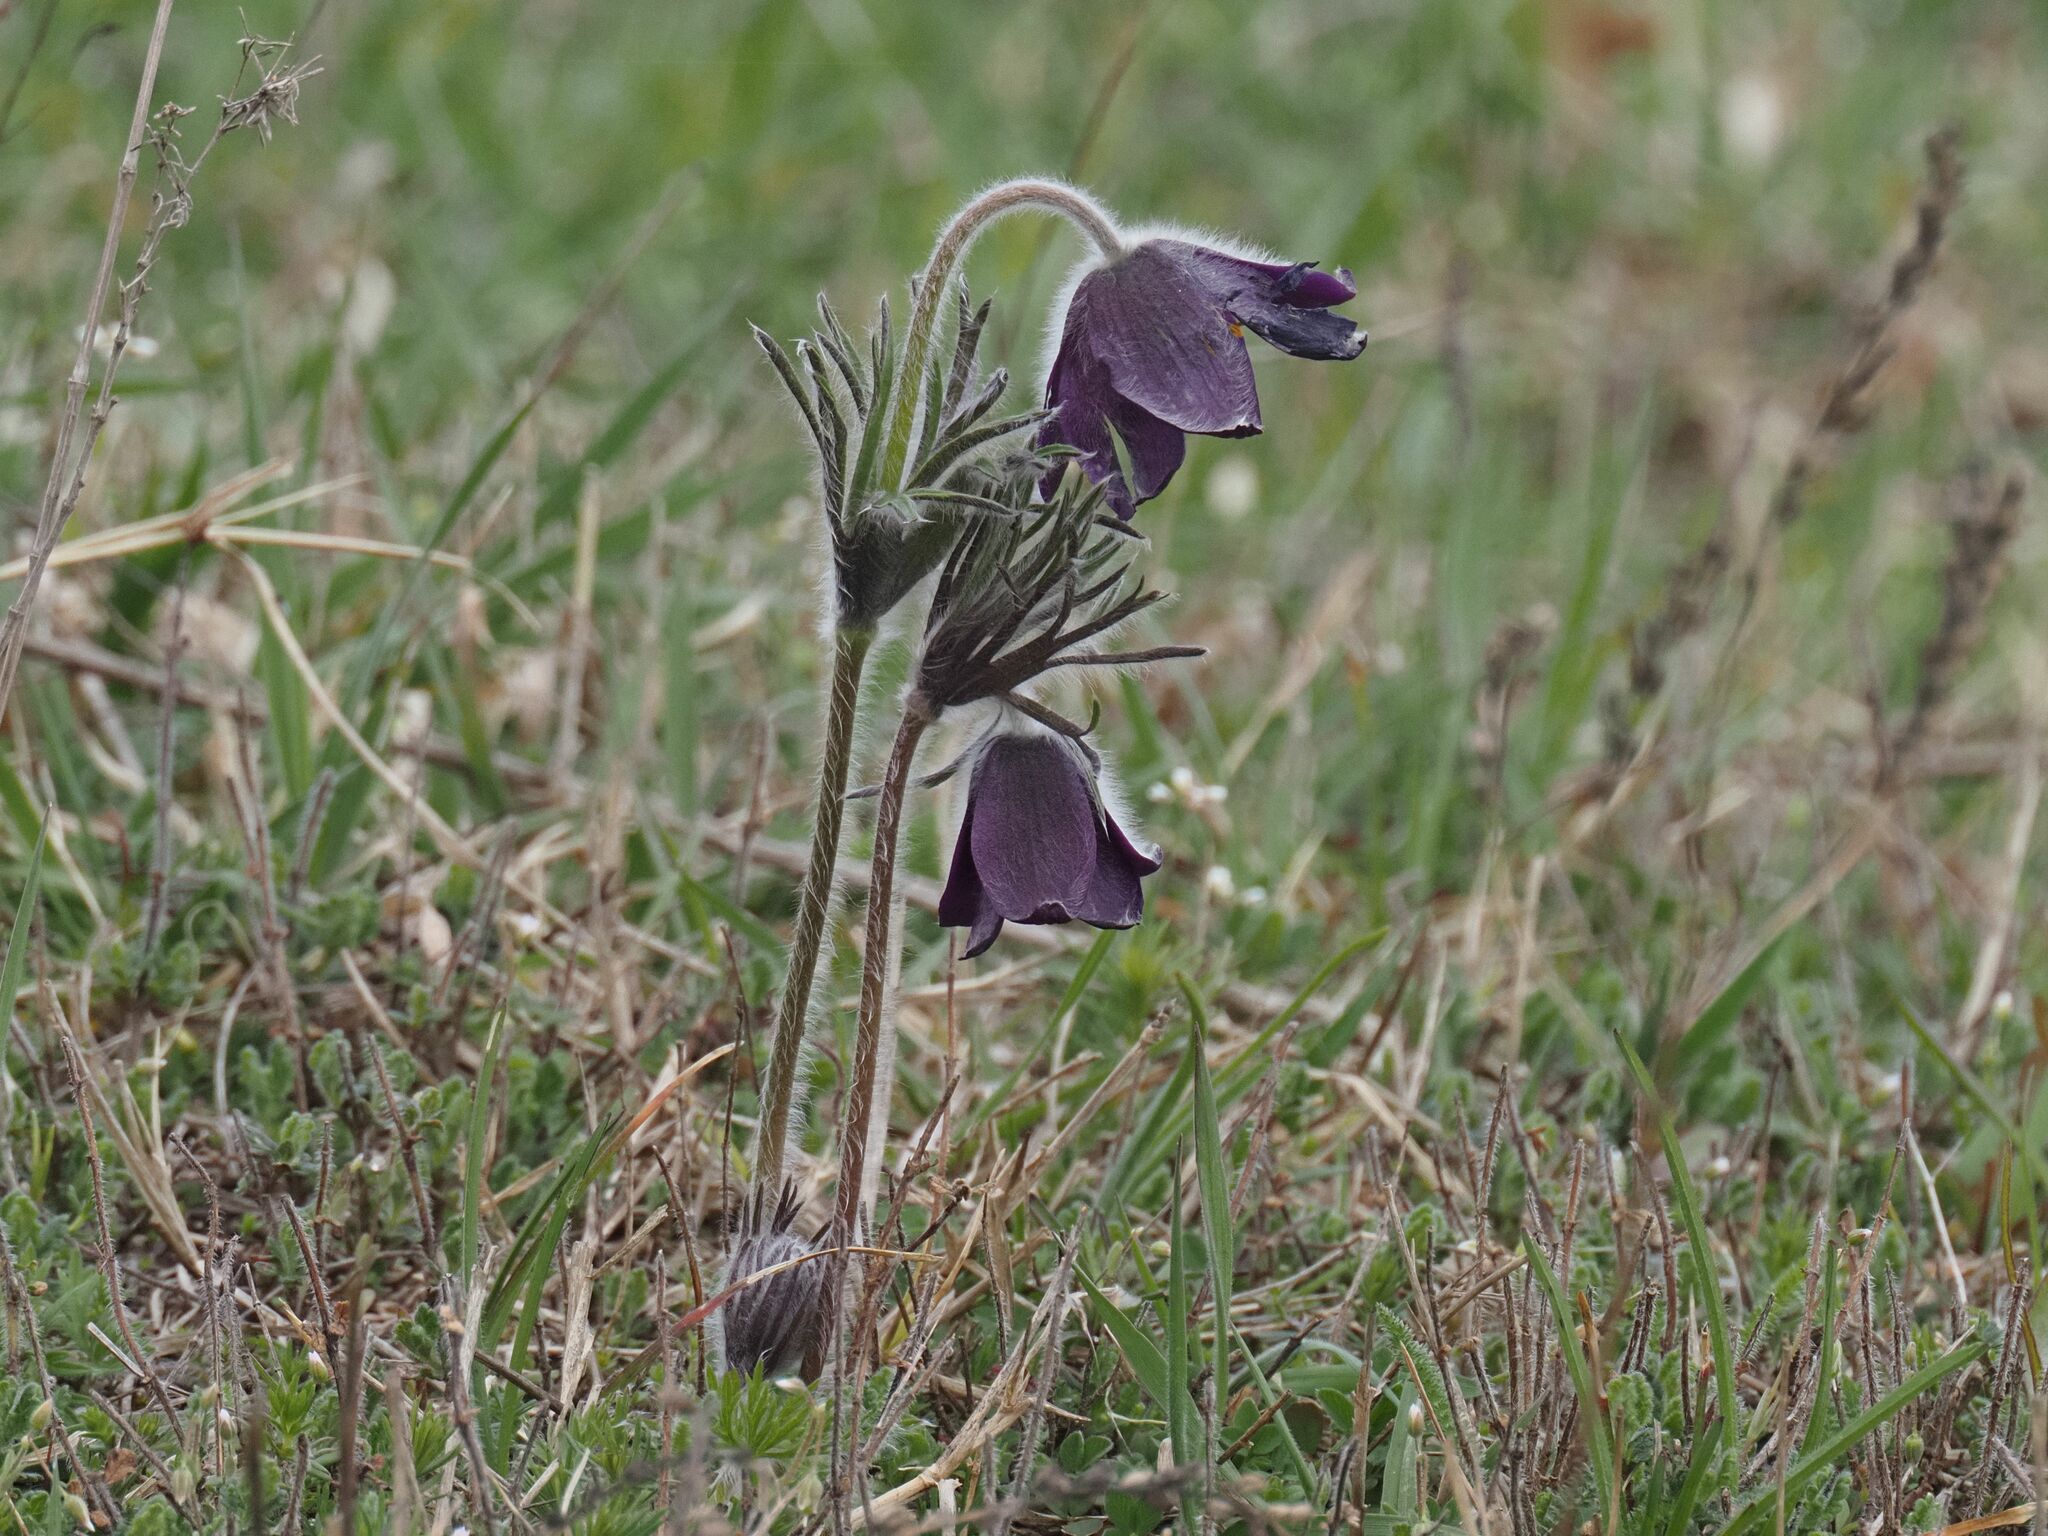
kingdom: Plantae
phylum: Tracheophyta
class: Magnoliopsida
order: Ranunculales
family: Ranunculaceae
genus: Pulsatilla
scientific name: Pulsatilla pratensis
